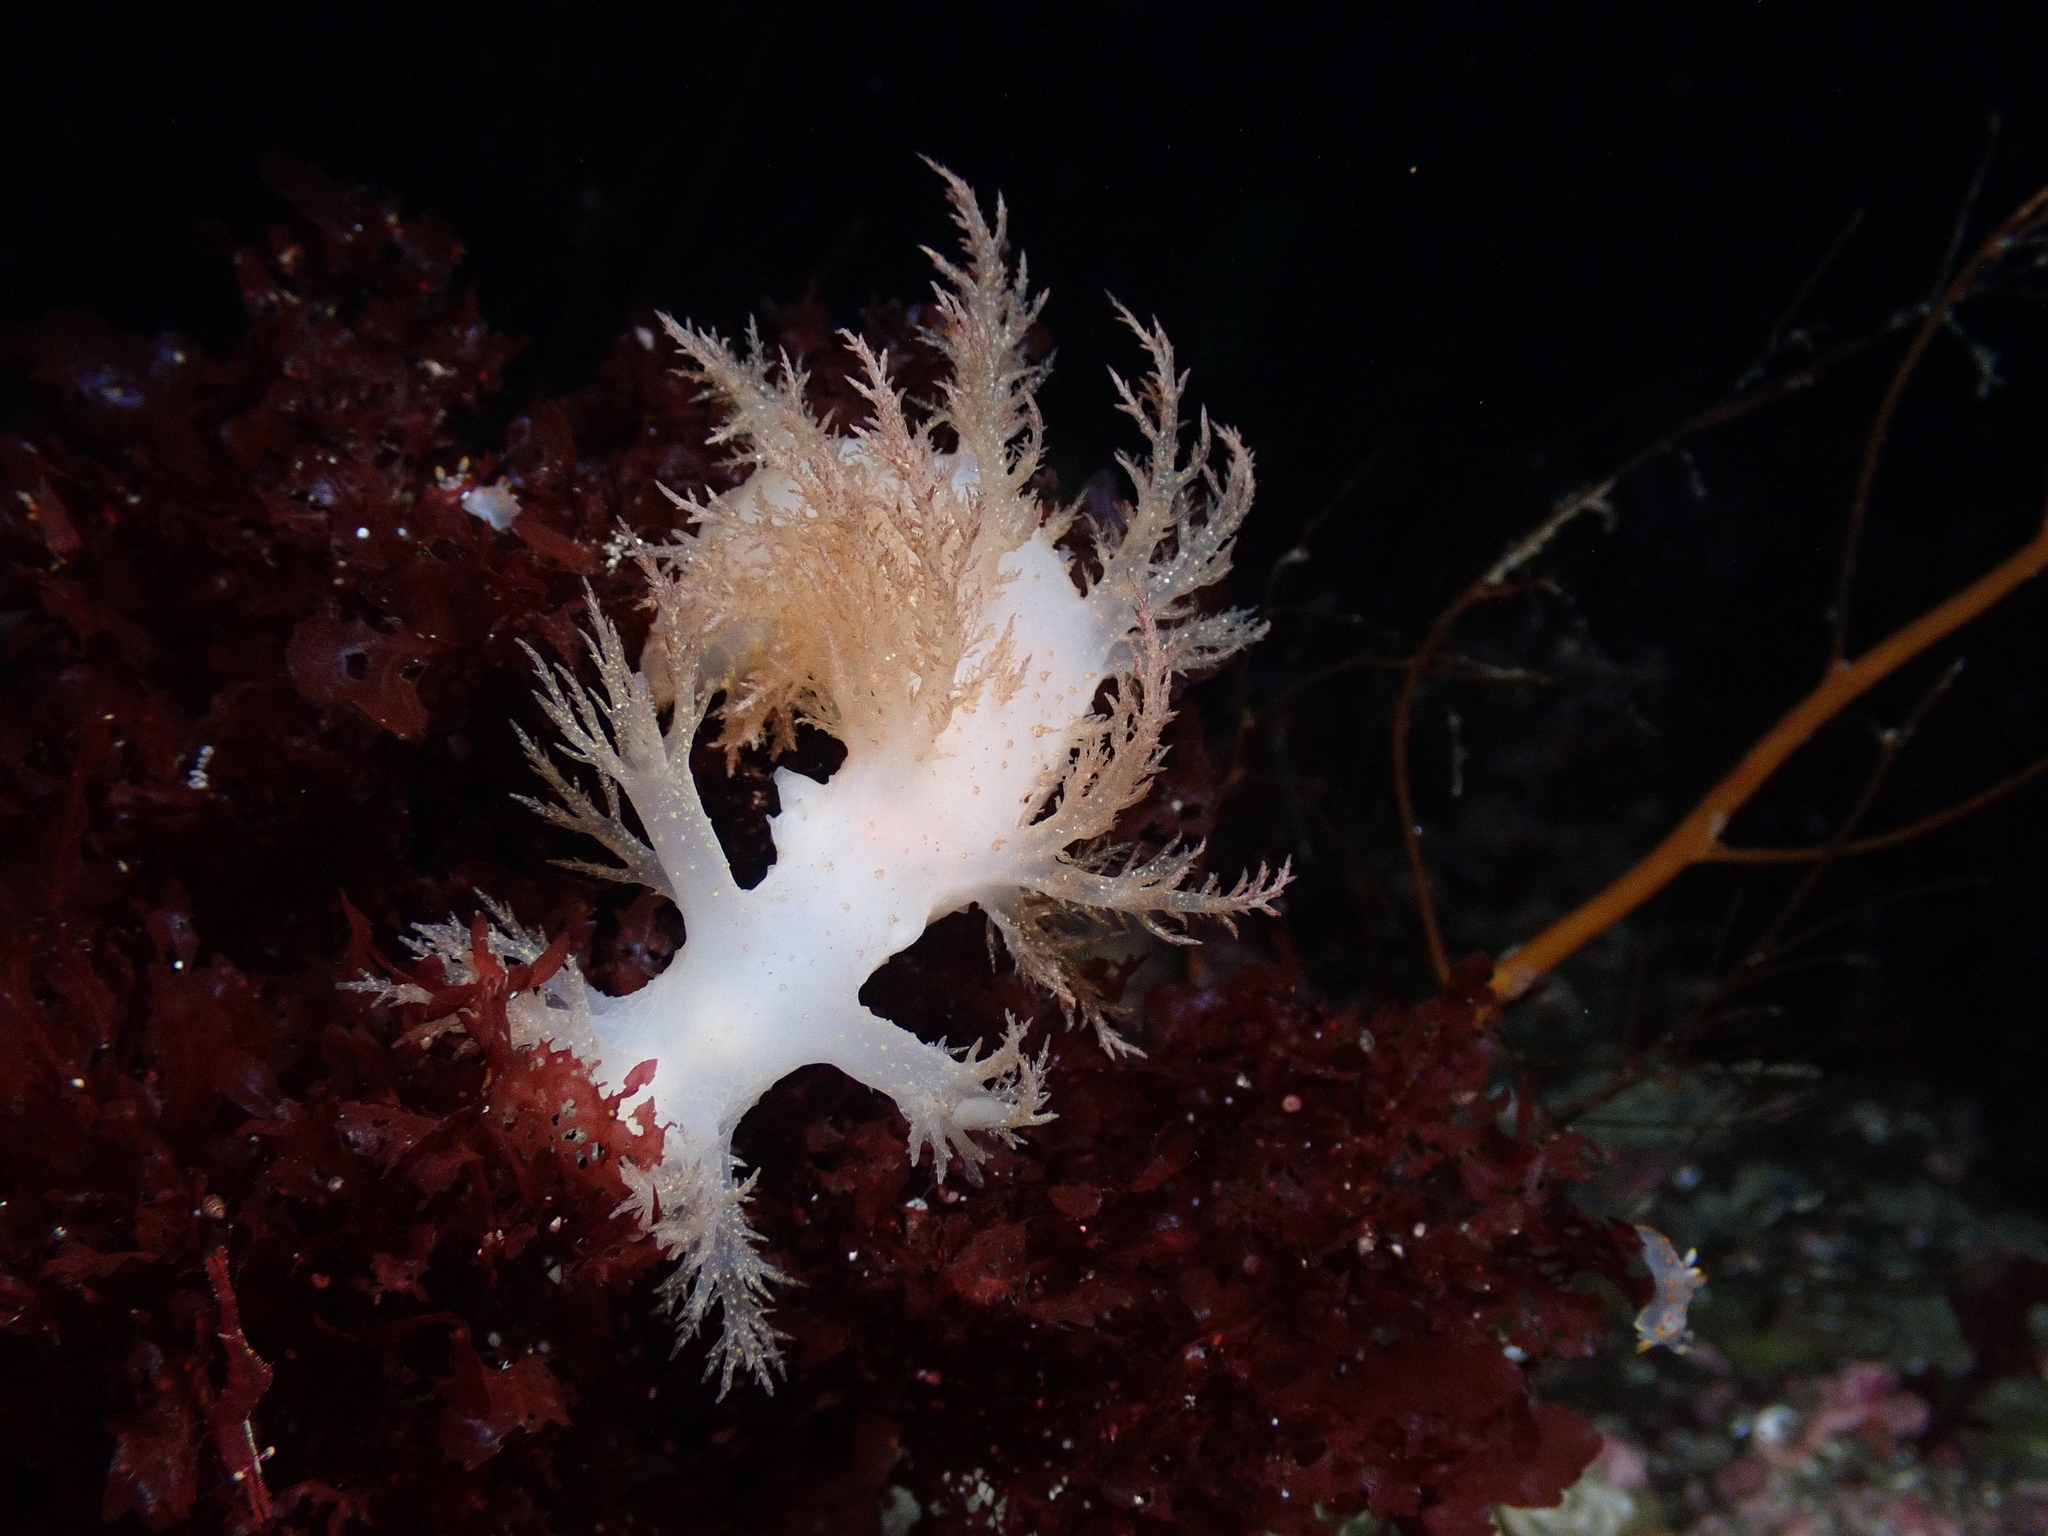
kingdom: Animalia
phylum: Mollusca
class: Gastropoda
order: Nudibranchia
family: Dendronotidae
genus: Dendronotus
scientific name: Dendronotus elegans
